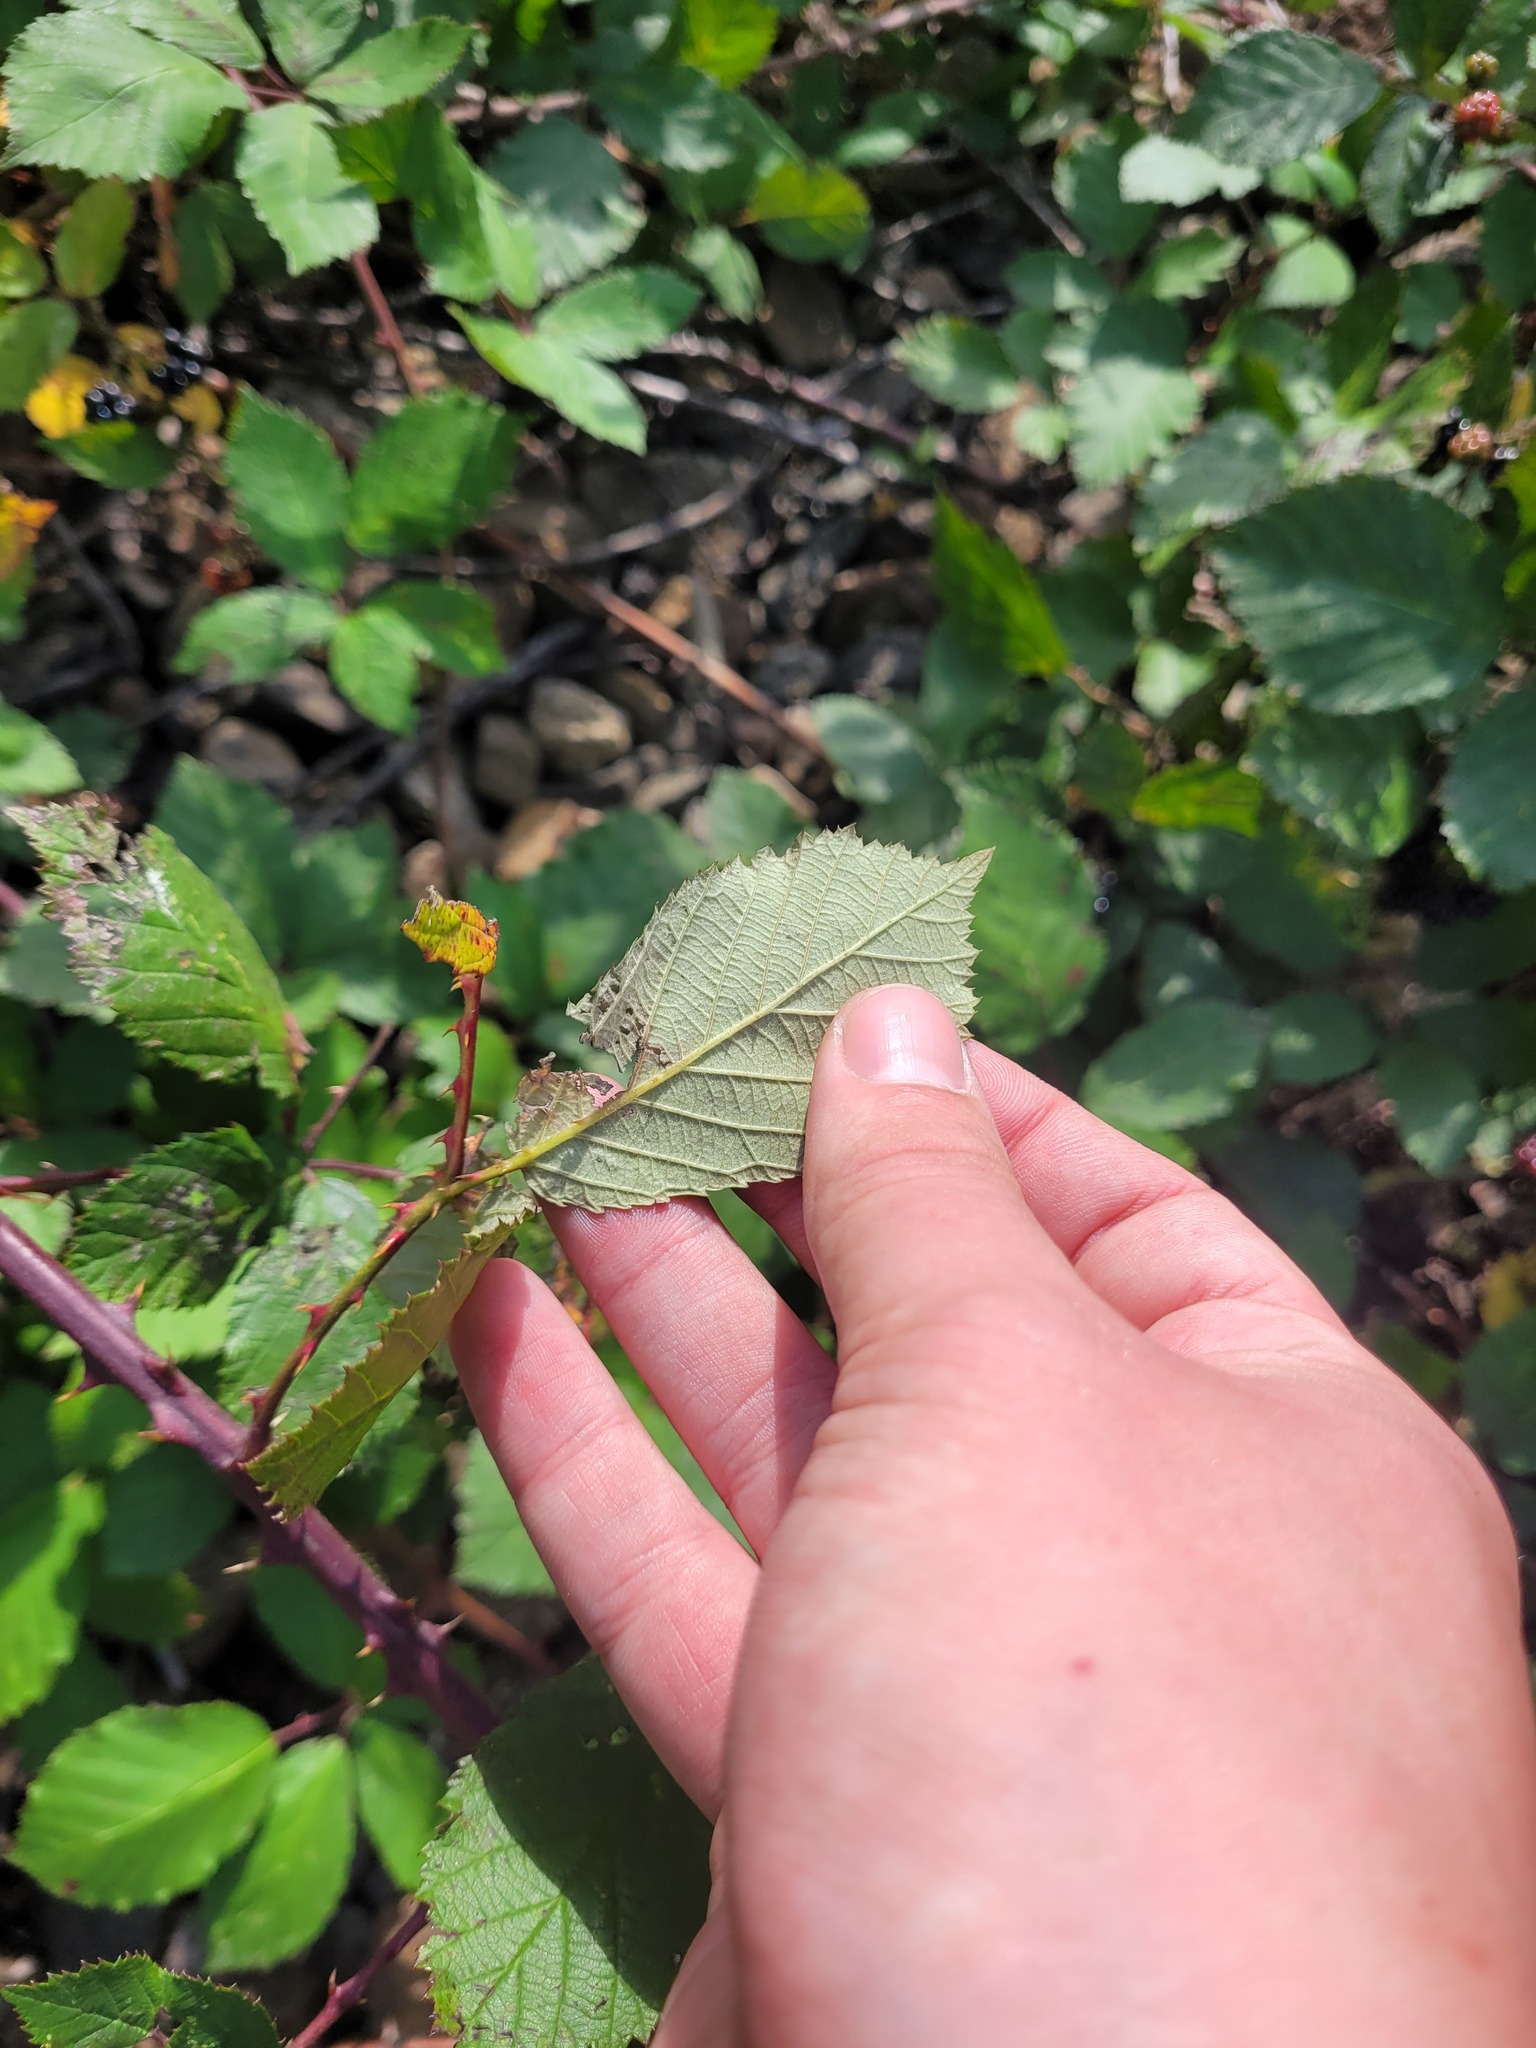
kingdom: Plantae
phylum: Tracheophyta
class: Magnoliopsida
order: Rosales
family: Rosaceae
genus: Rubus
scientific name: Rubus procerus
